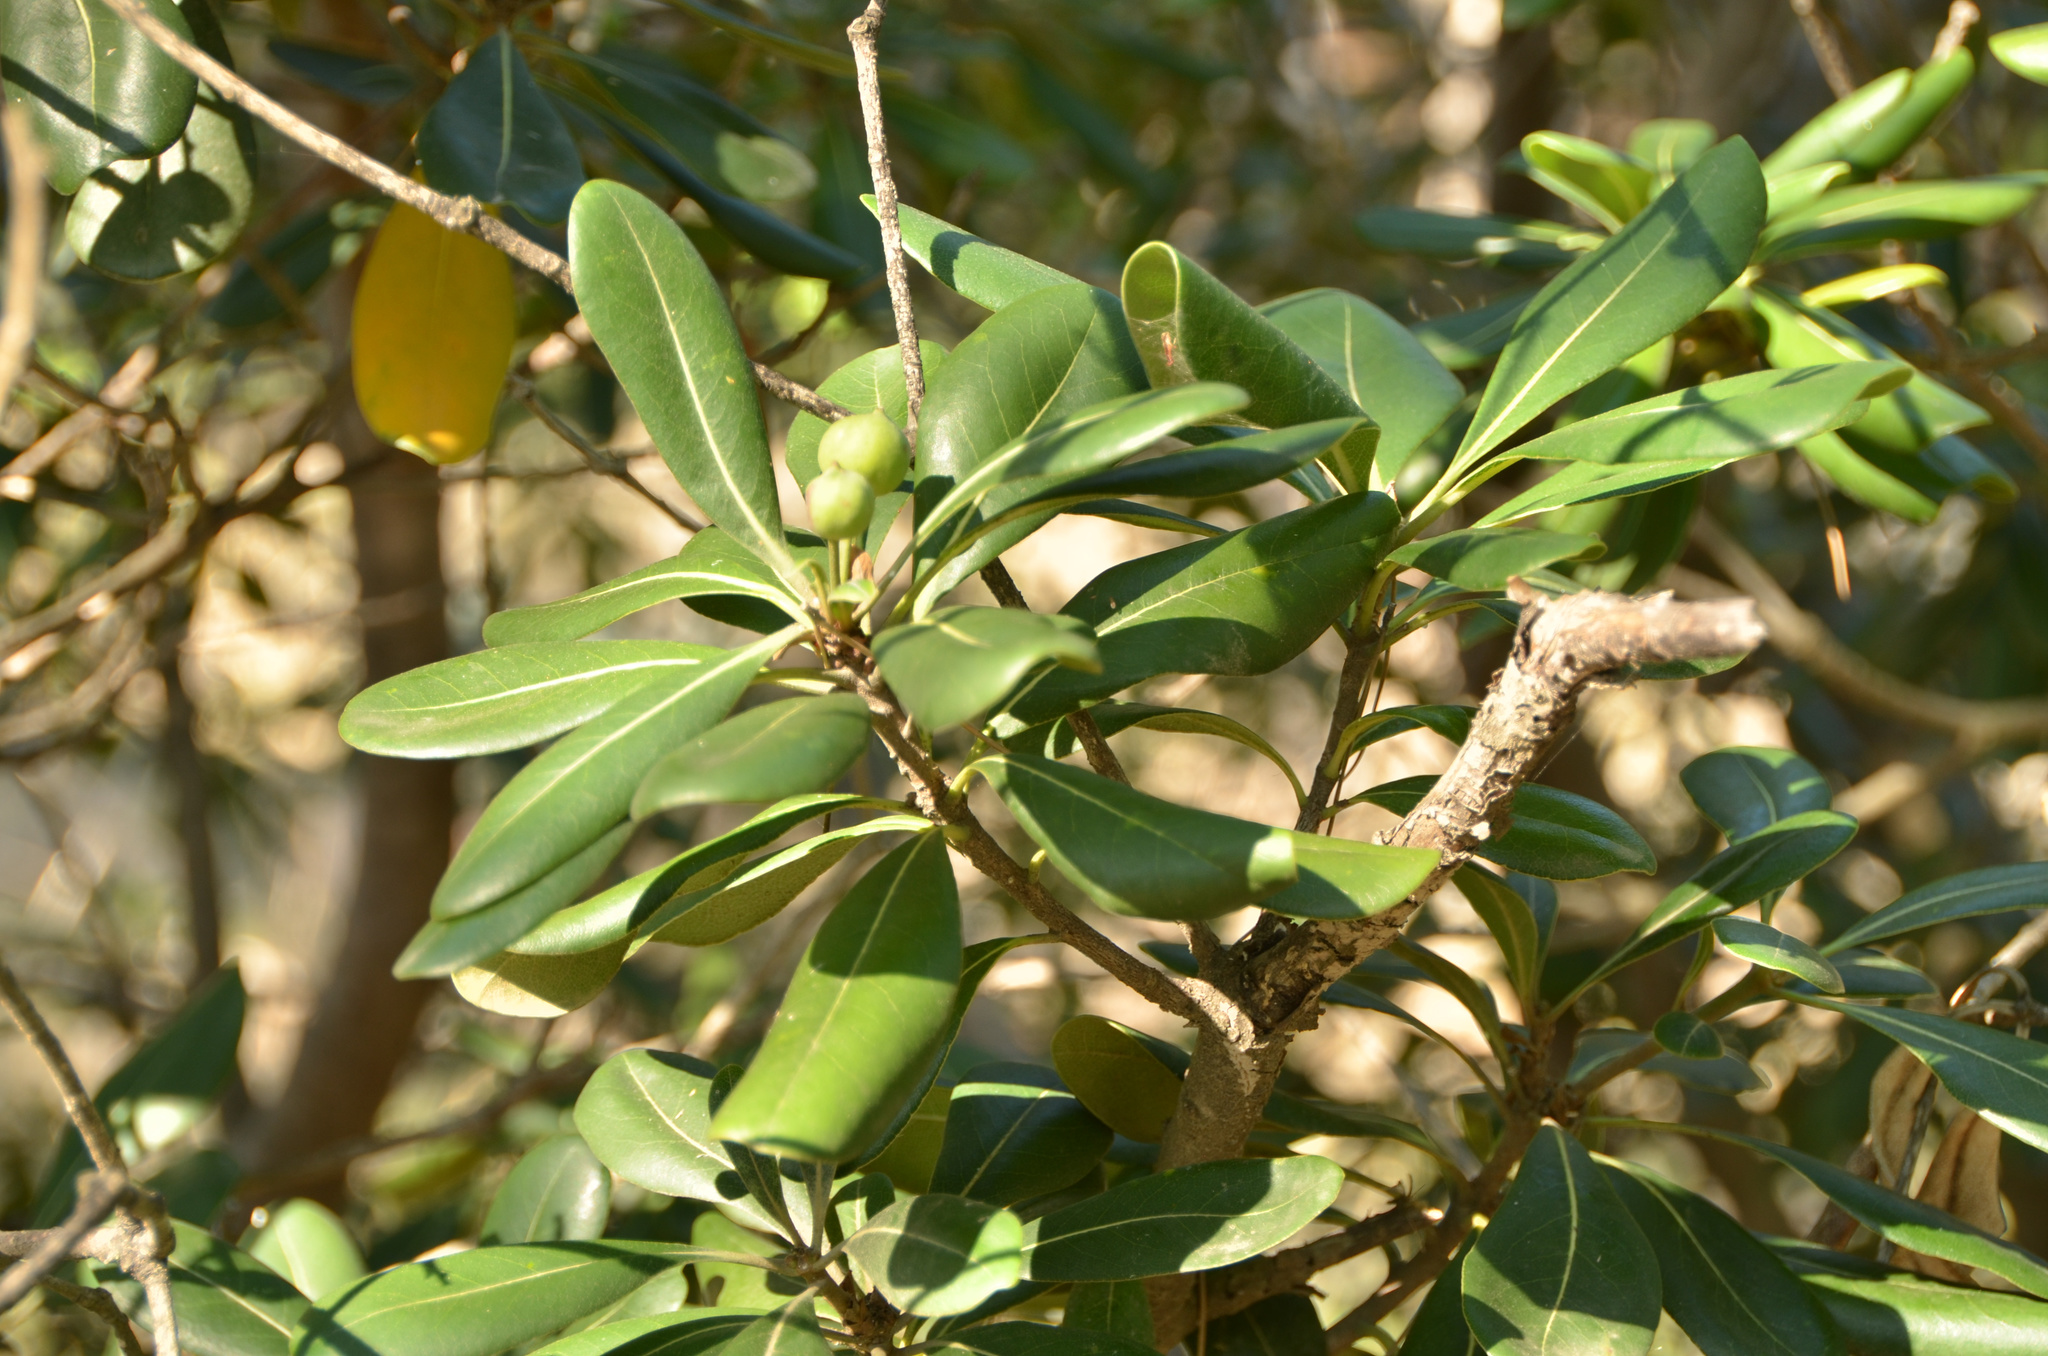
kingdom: Plantae
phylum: Tracheophyta
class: Magnoliopsida
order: Apiales
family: Pittosporaceae
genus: Pittosporum
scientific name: Pittosporum tobira
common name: Japanese cheesewood
